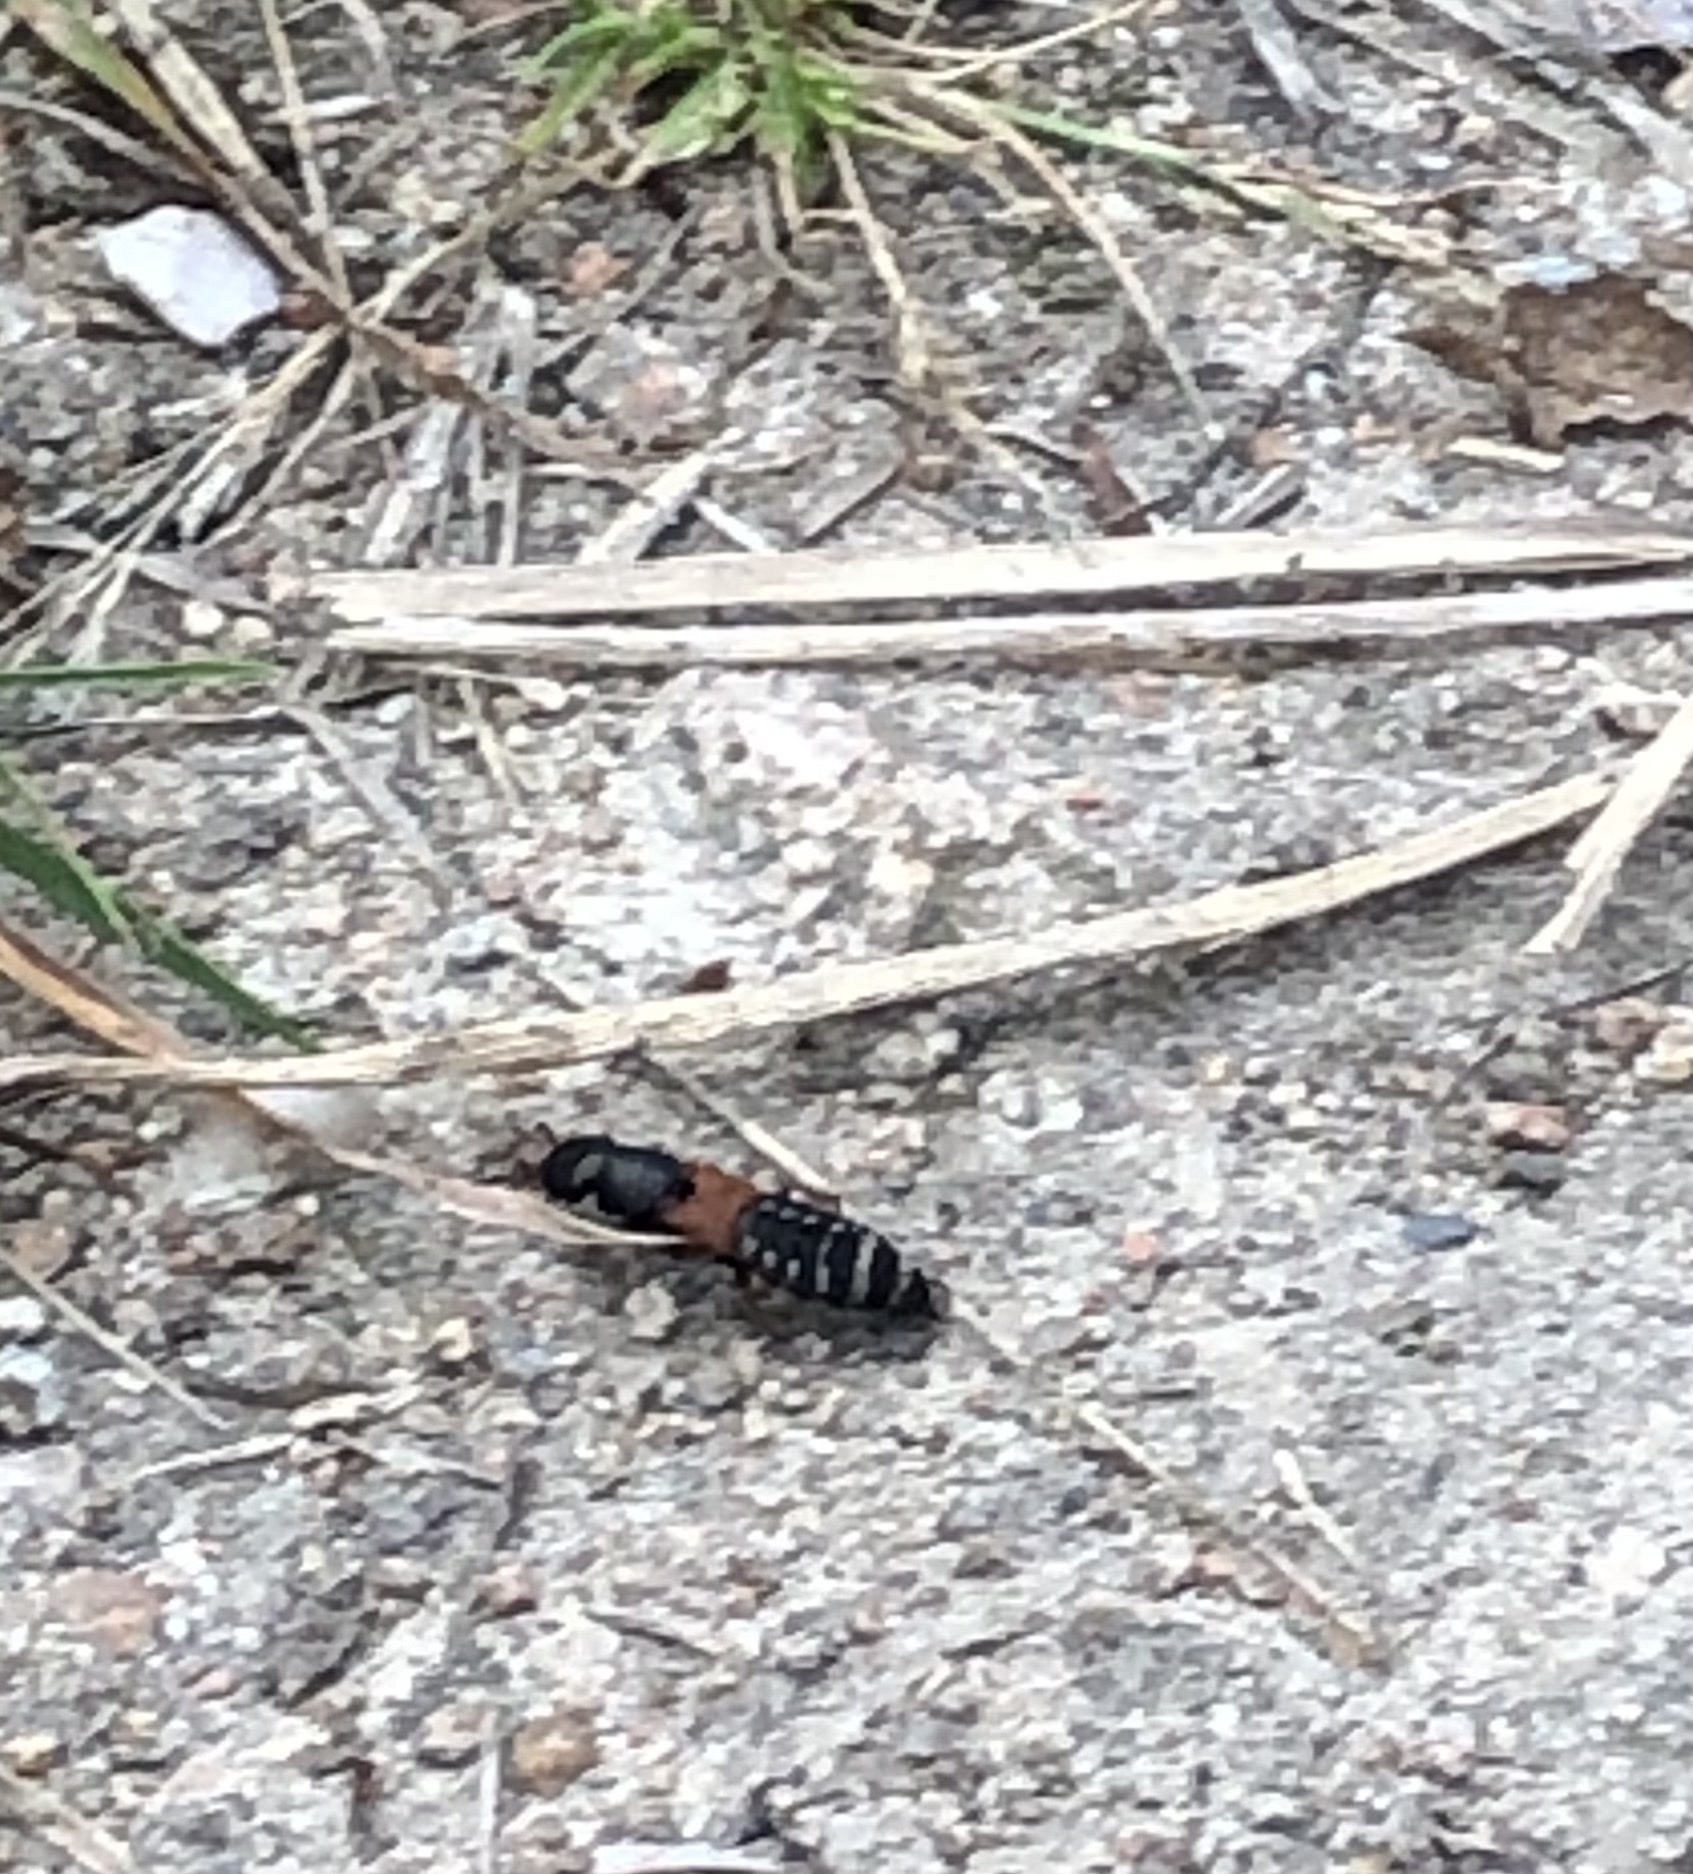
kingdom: Animalia
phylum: Arthropoda
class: Insecta
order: Coleoptera
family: Staphylinidae
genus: Platydracus
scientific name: Platydracus stercorarius
